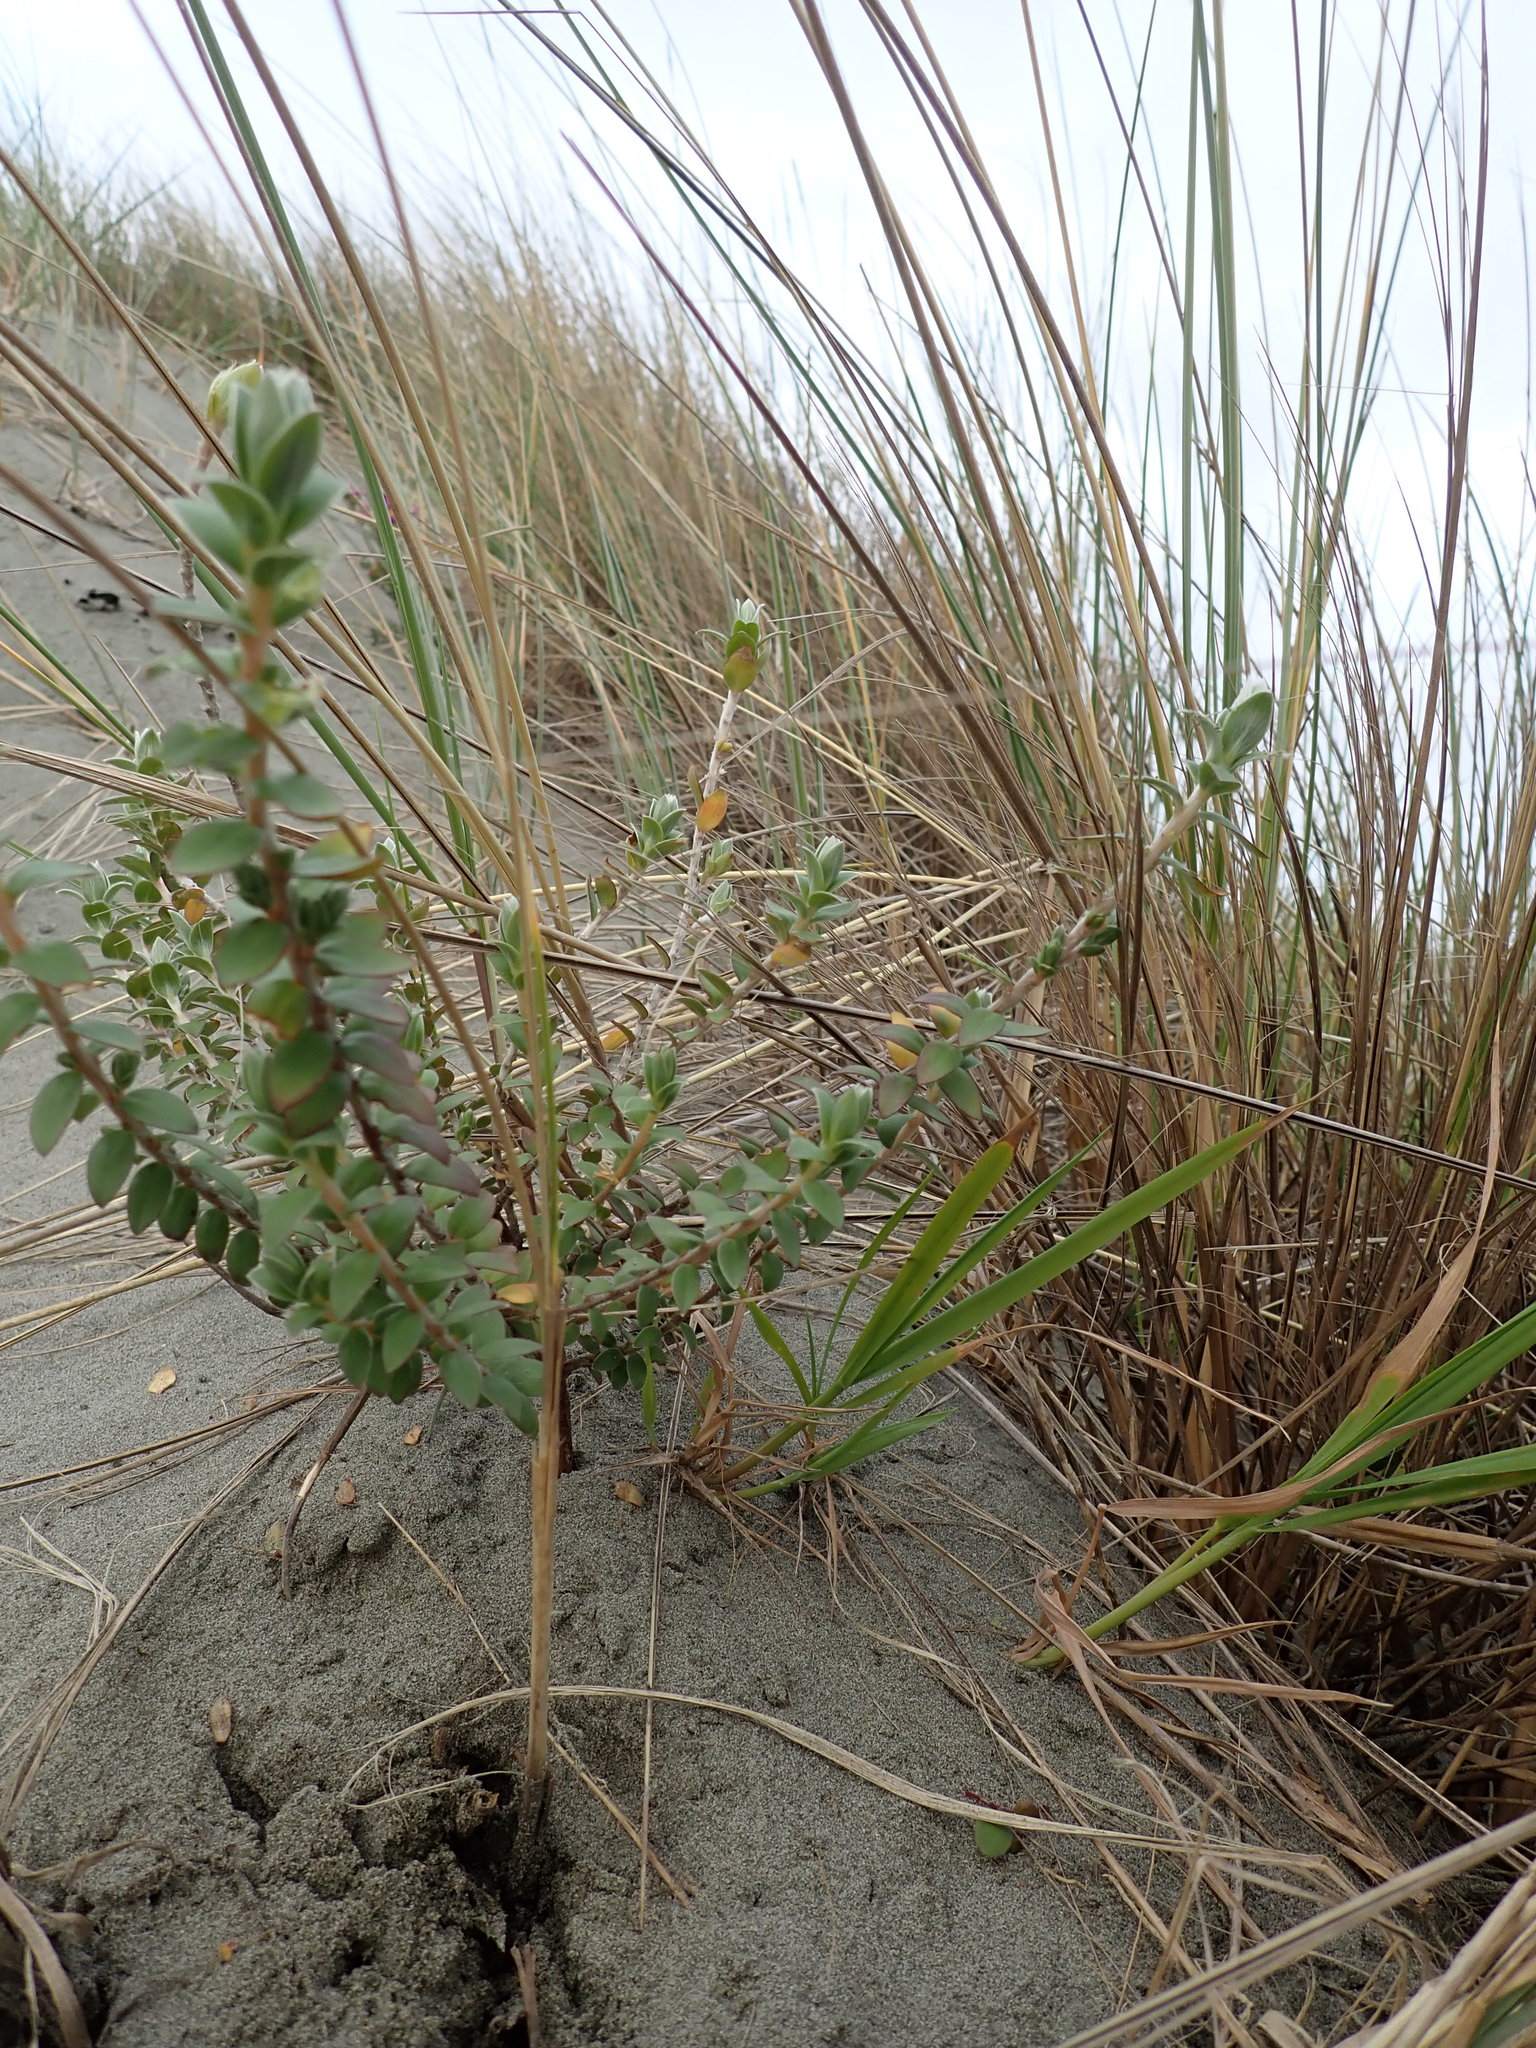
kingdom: Plantae
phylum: Tracheophyta
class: Magnoliopsida
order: Malvales
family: Thymelaeaceae
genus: Pimelea
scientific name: Pimelea villosa
